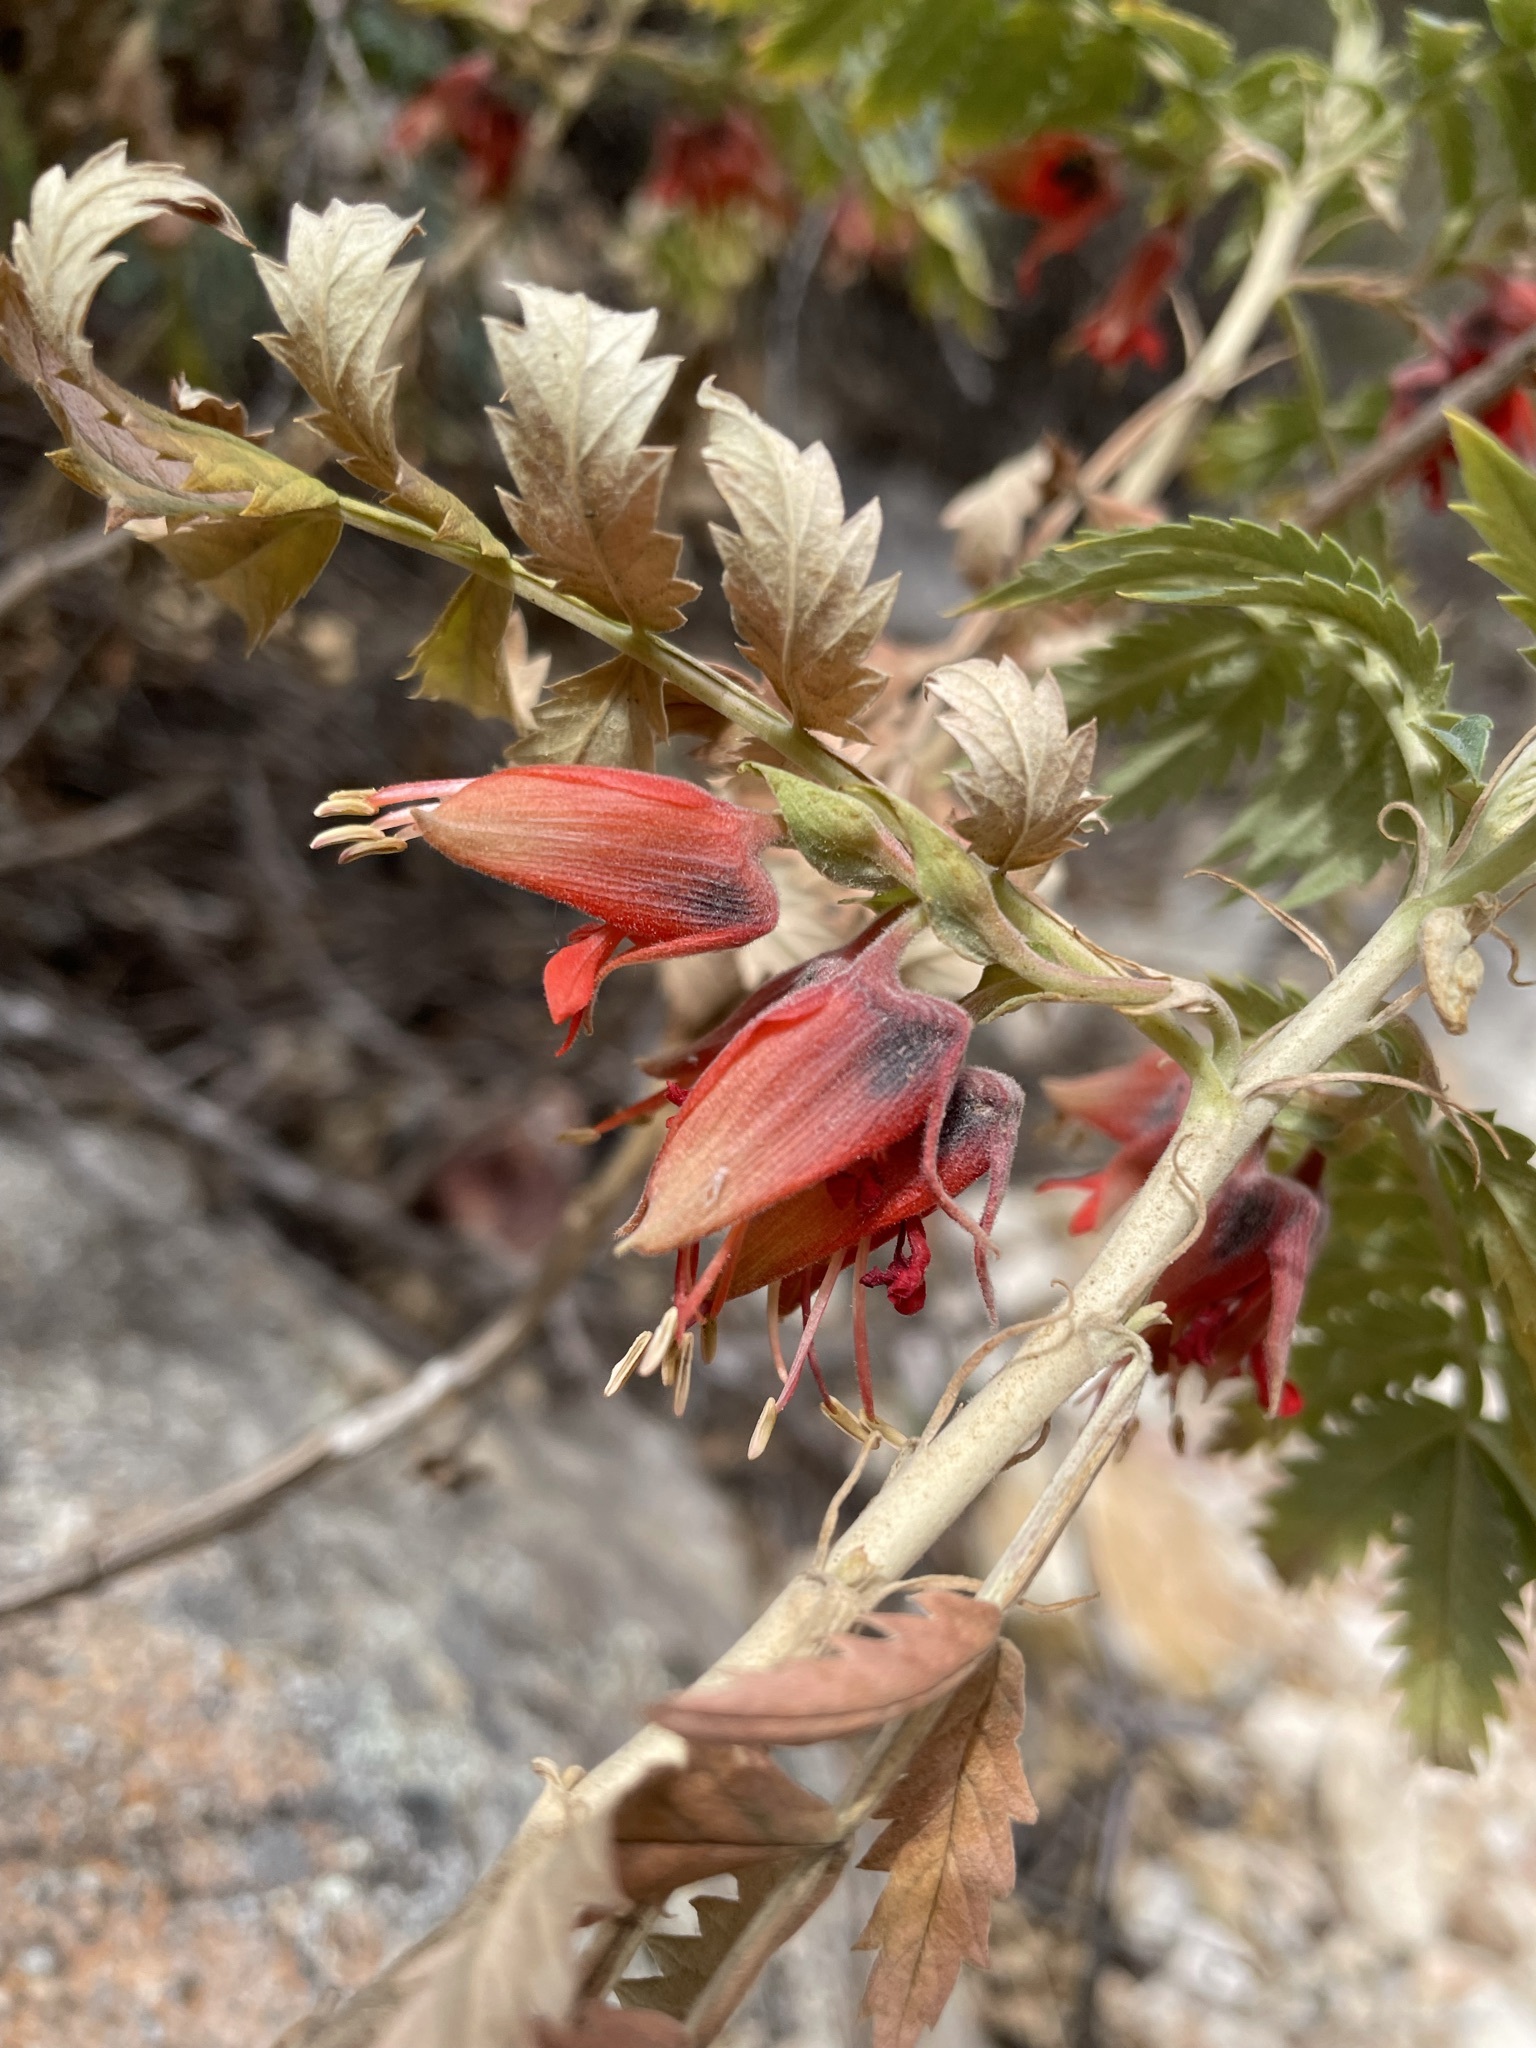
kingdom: Plantae
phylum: Tracheophyta
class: Magnoliopsida
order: Geraniales
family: Melianthaceae
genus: Melianthus
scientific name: Melianthus comosus
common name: Touch-me-not
